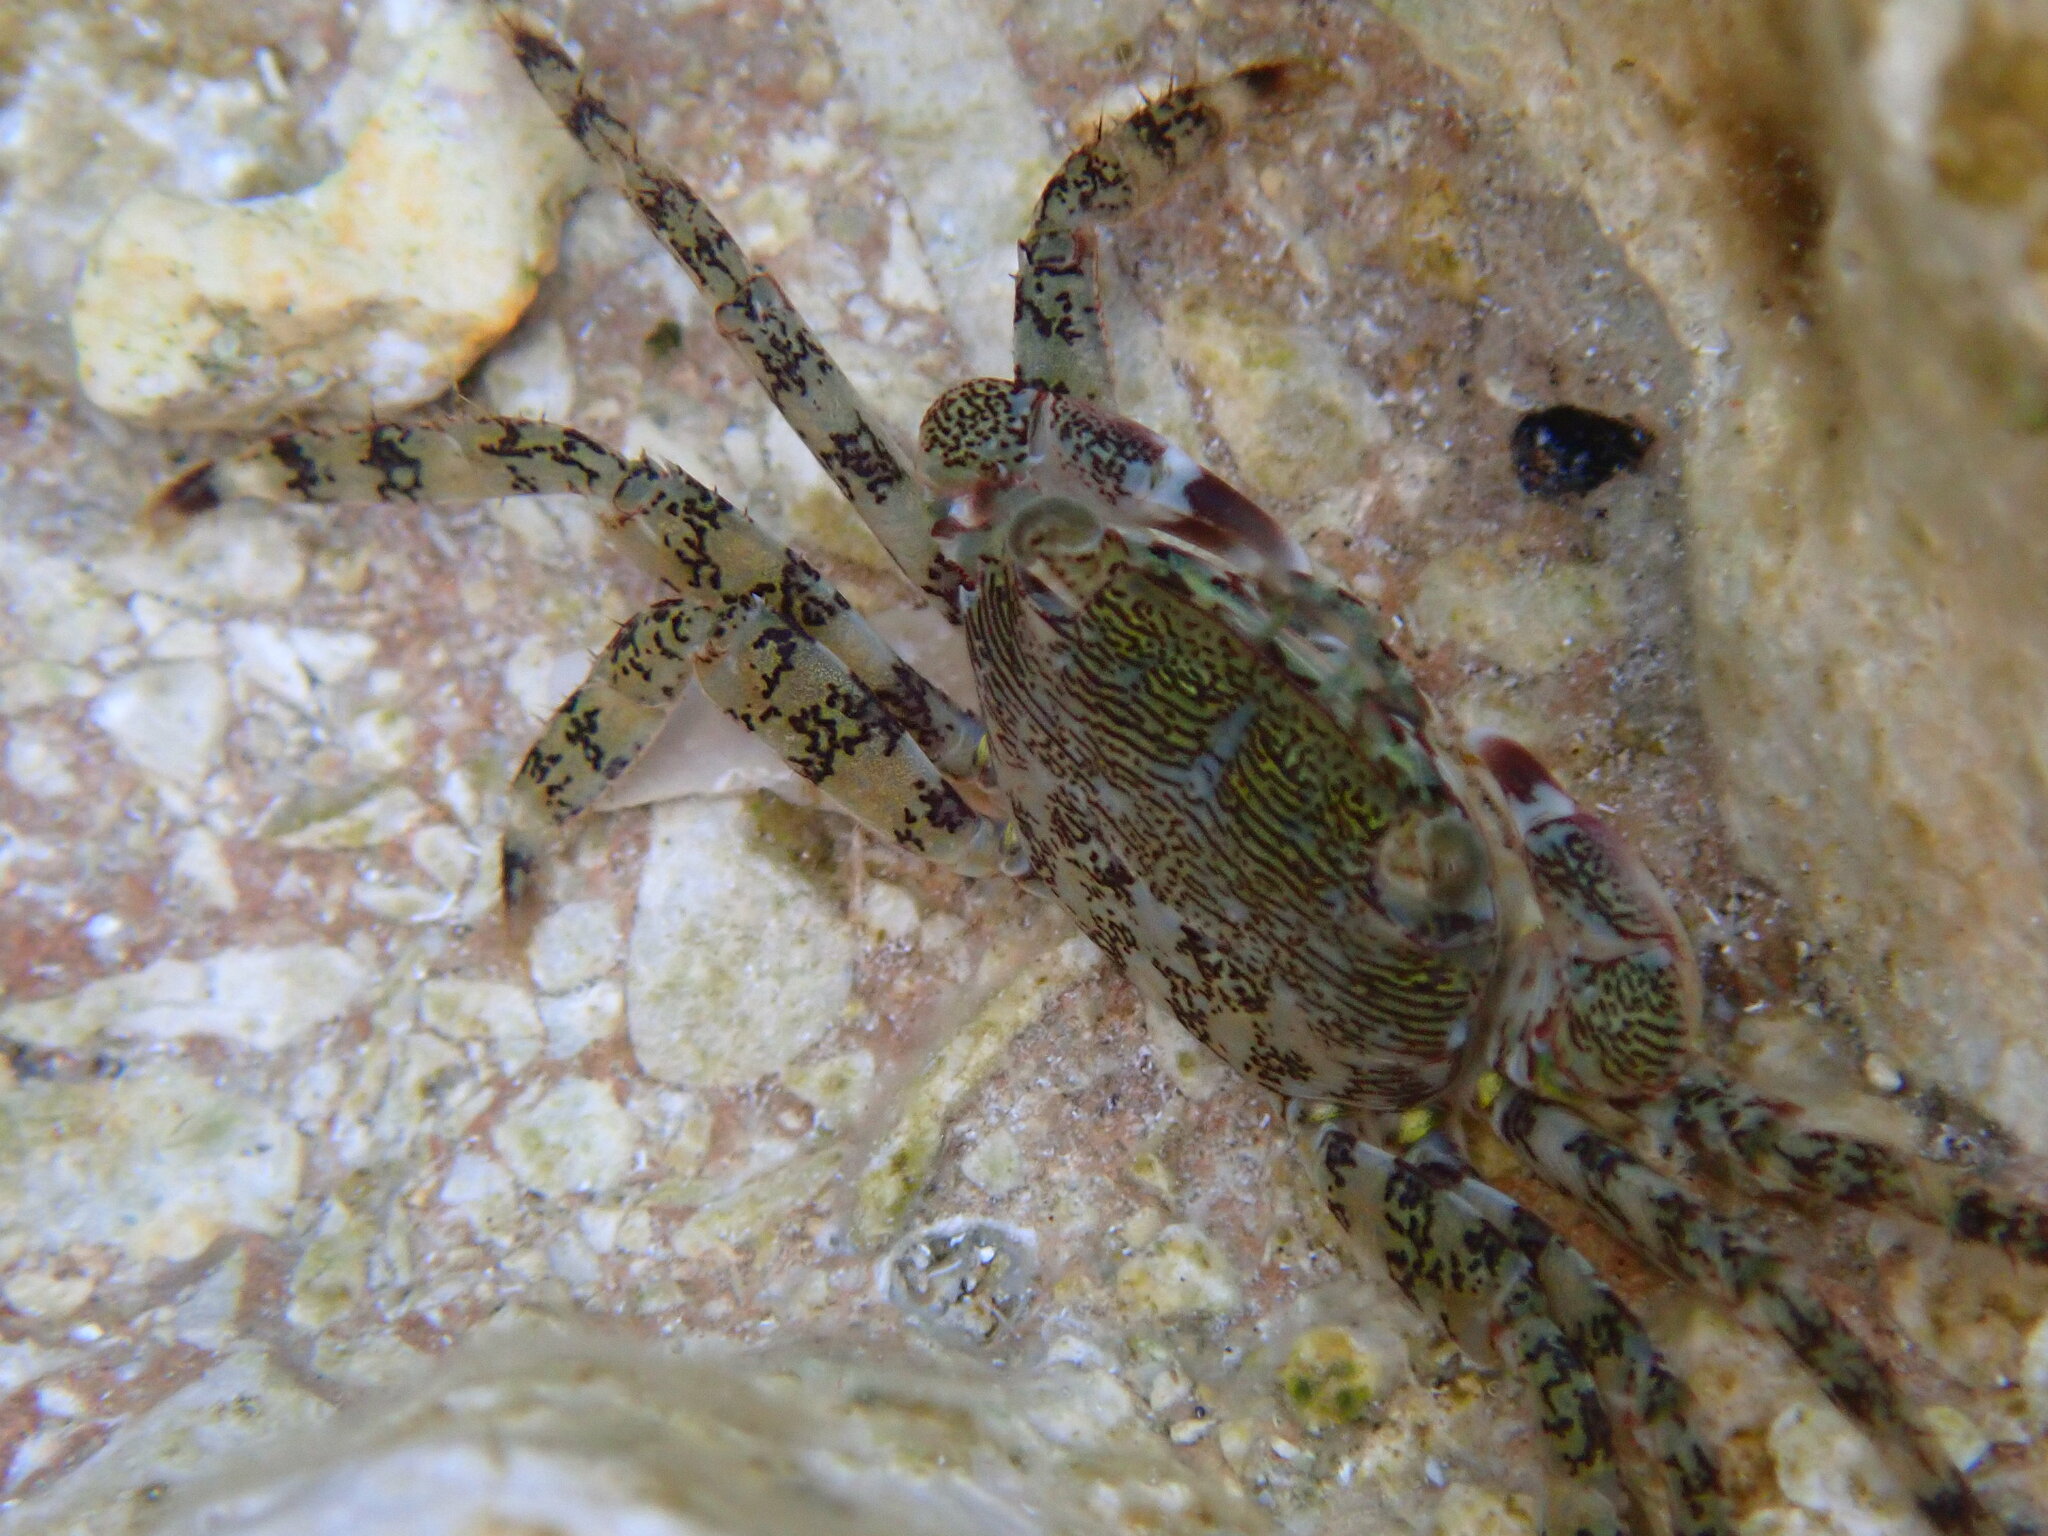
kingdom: Animalia
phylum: Arthropoda
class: Malacostraca
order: Decapoda
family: Grapsidae
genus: Pachygrapsus
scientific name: Pachygrapsus marmoratus
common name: Marbled rock crab
